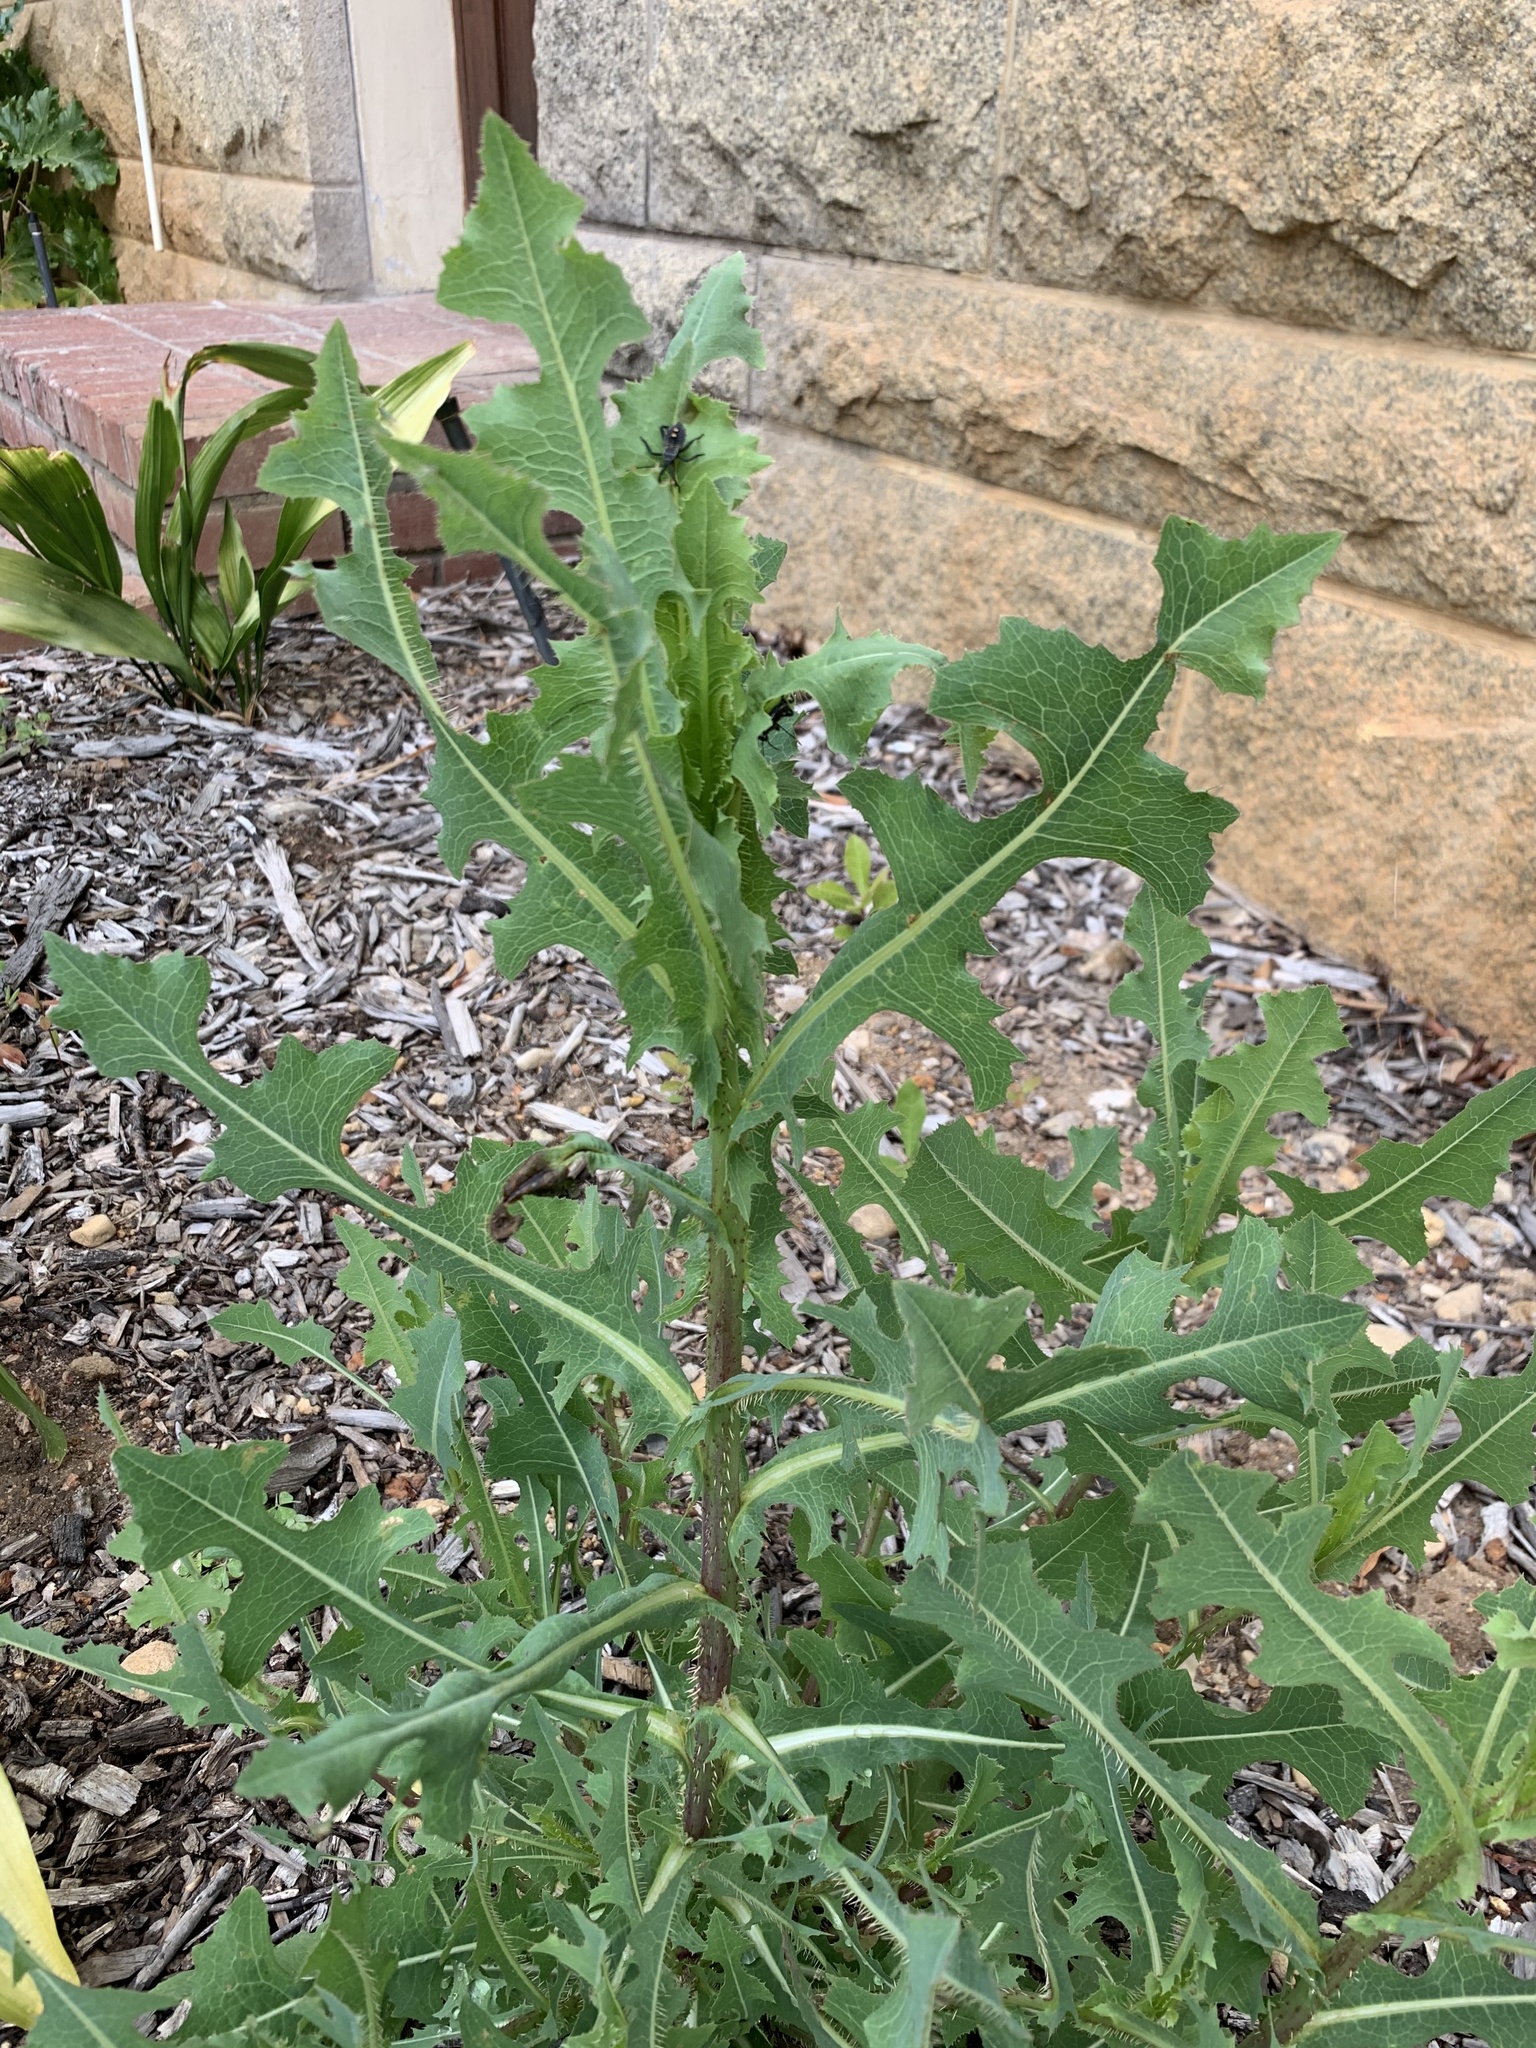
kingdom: Plantae
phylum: Tracheophyta
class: Magnoliopsida
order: Asterales
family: Asteraceae
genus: Lactuca
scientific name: Lactuca serriola
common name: Prickly lettuce
